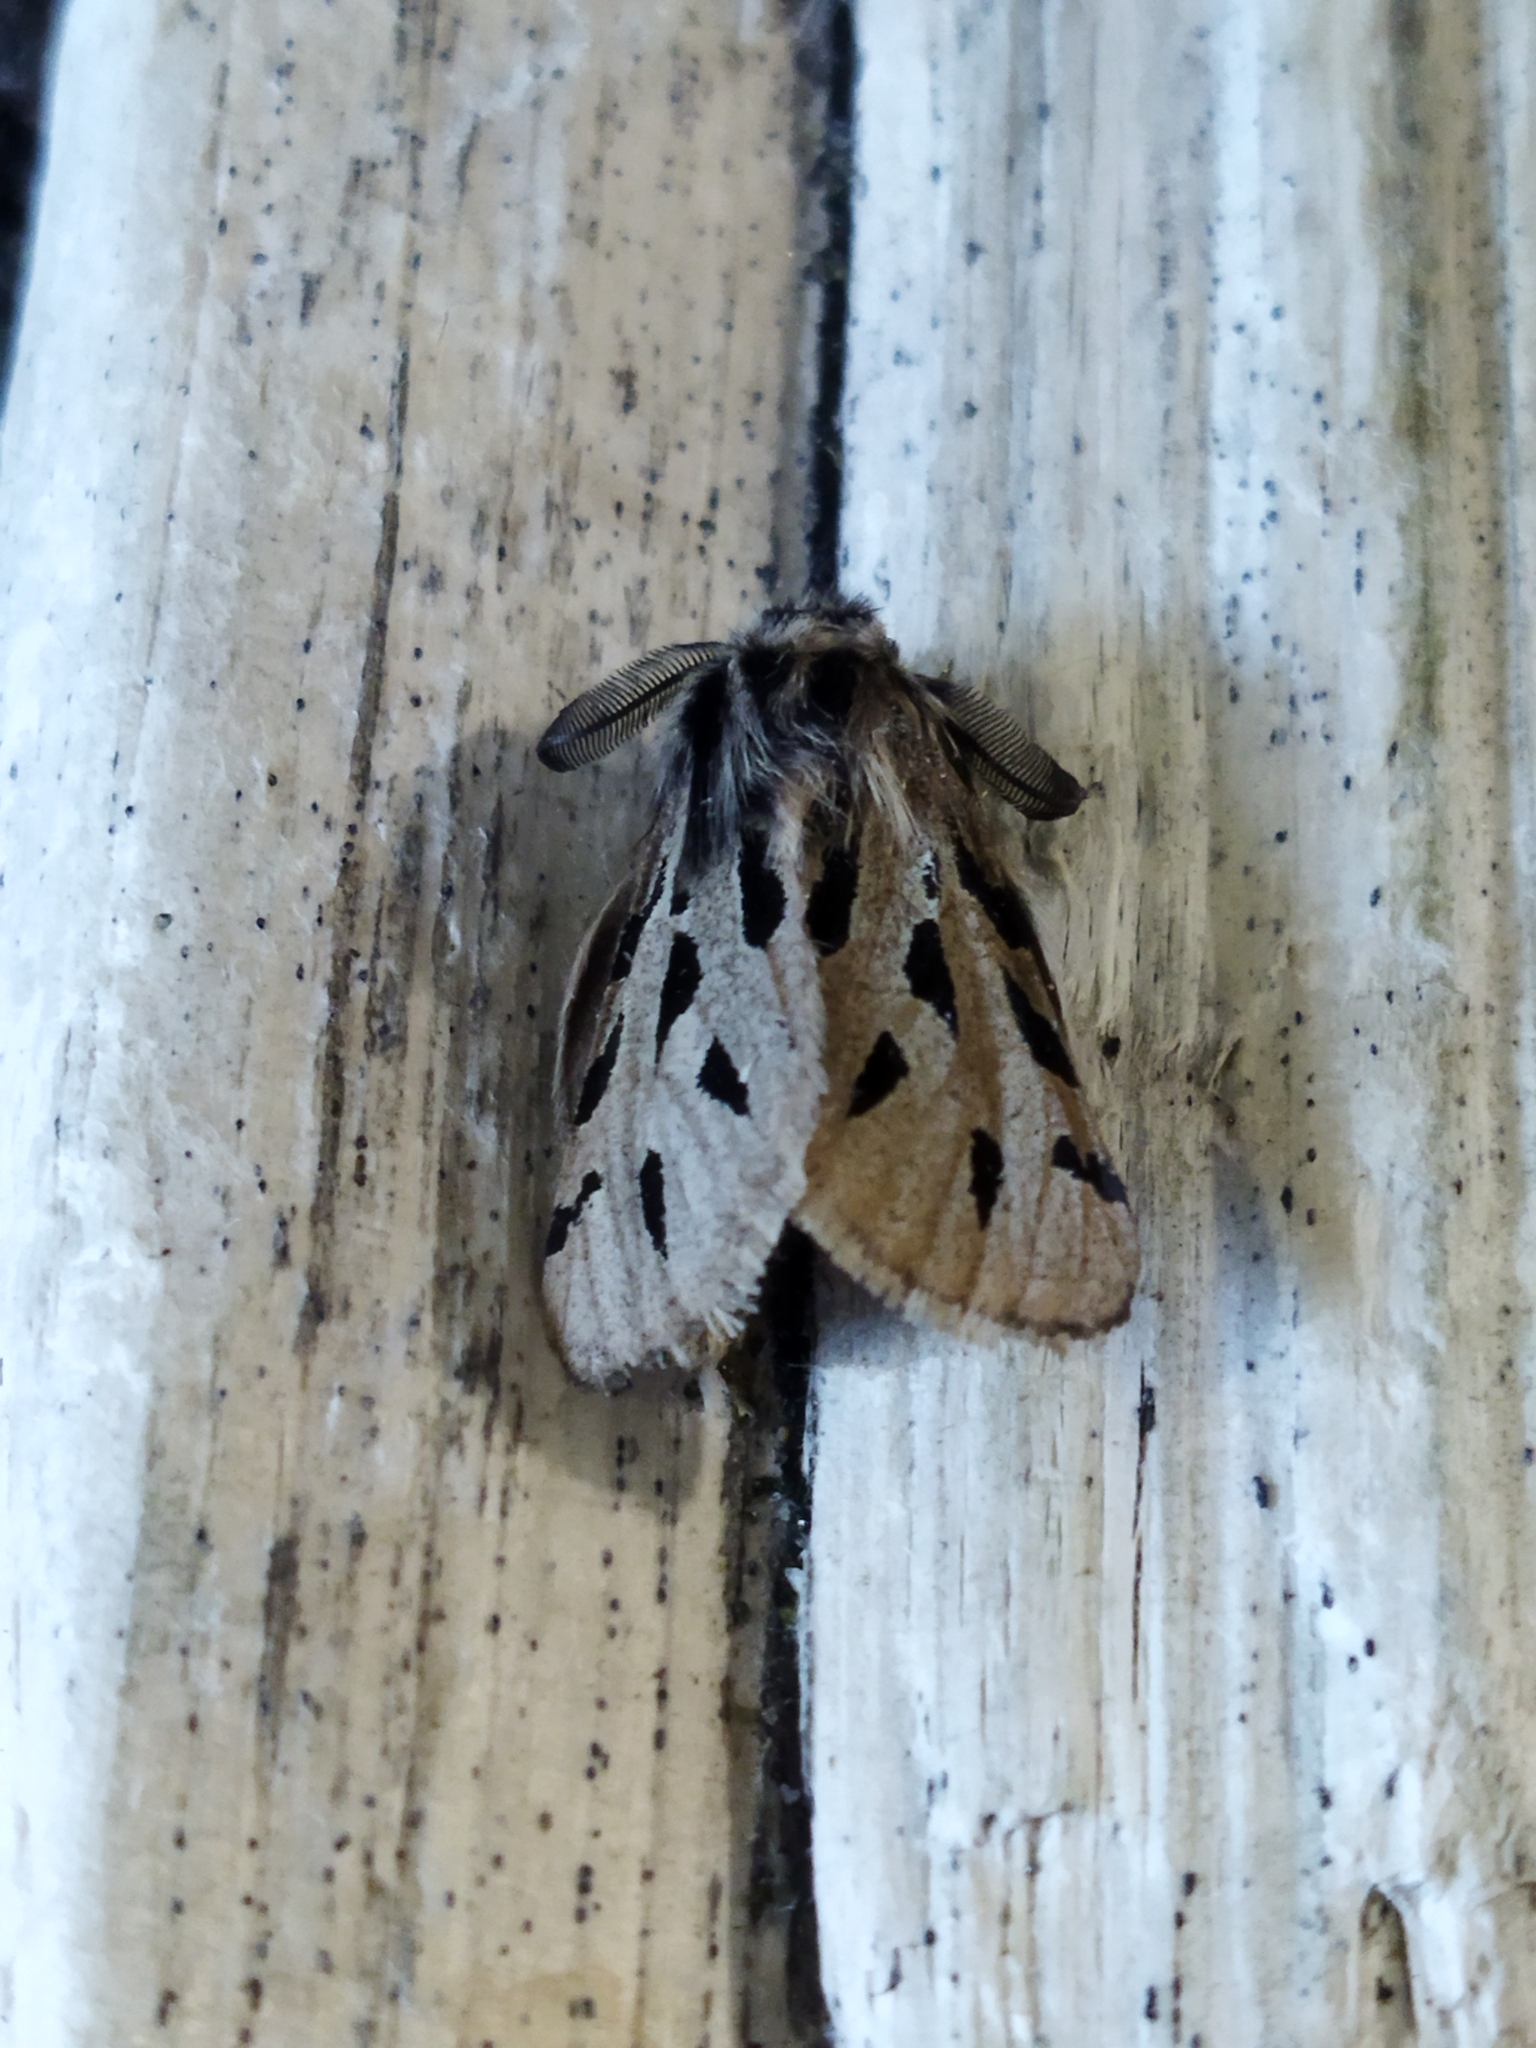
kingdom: Animalia
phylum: Arthropoda
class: Insecta
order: Lepidoptera
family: Erebidae
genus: Ocnogyna
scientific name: Ocnogyna parasita
